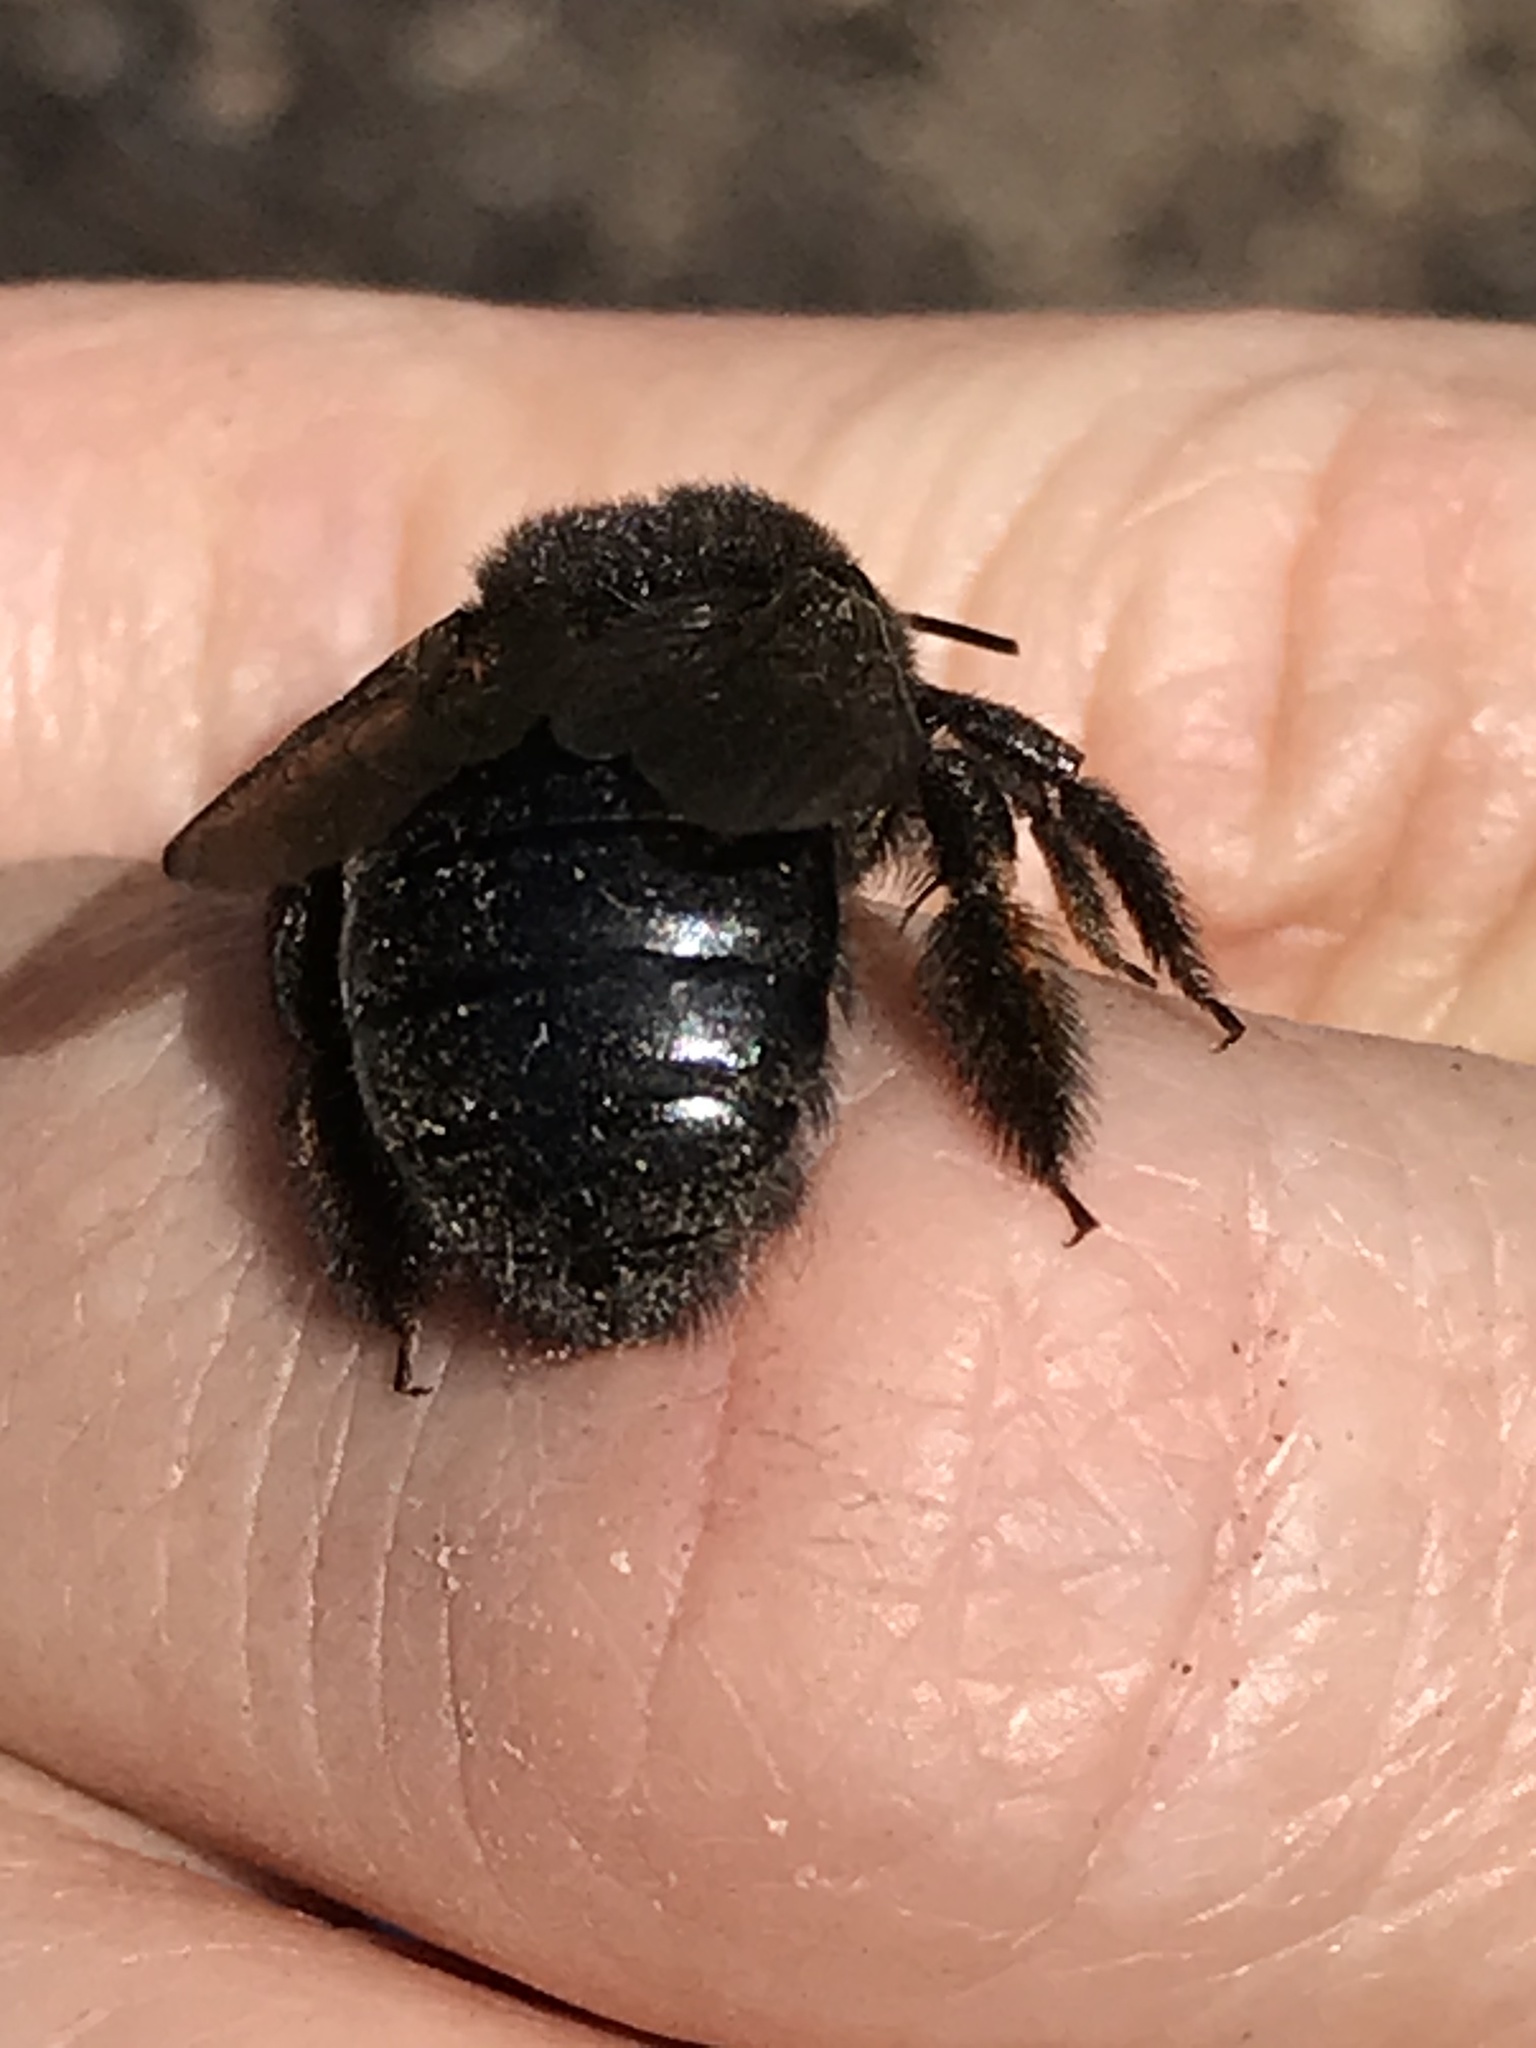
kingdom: Animalia
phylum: Arthropoda
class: Insecta
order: Hymenoptera
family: Apidae
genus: Xylocopa
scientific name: Xylocopa tabaniformis
